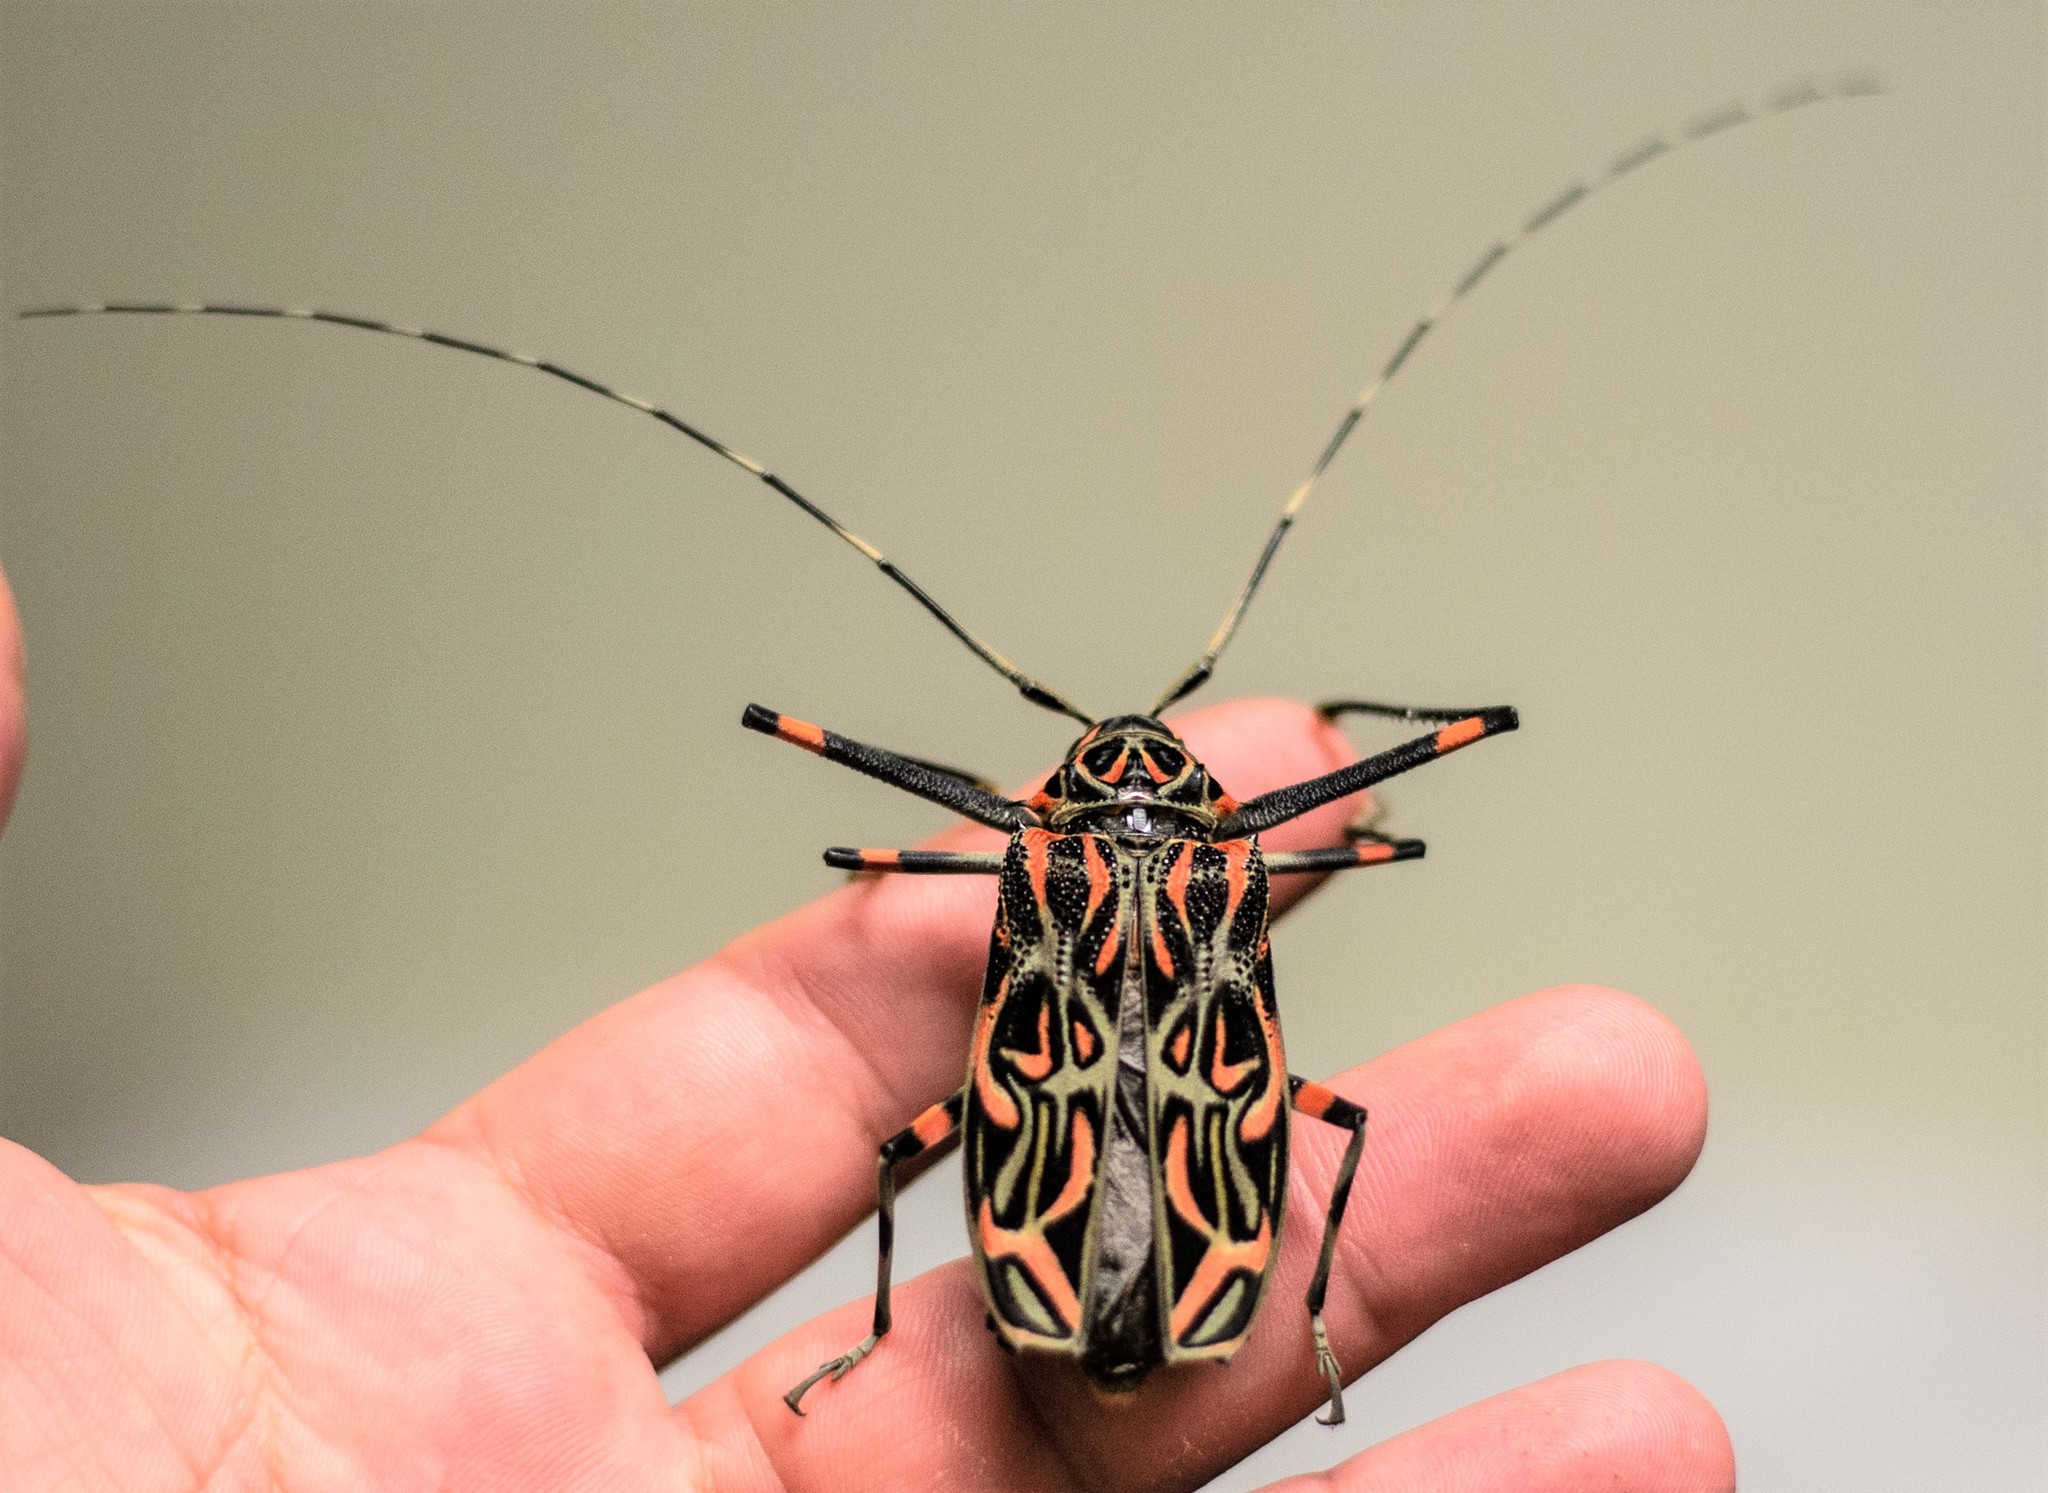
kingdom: Animalia
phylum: Arthropoda
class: Insecta
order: Coleoptera
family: Cerambycidae
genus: Acrocinus
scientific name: Acrocinus longimanus
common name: Arlequin
